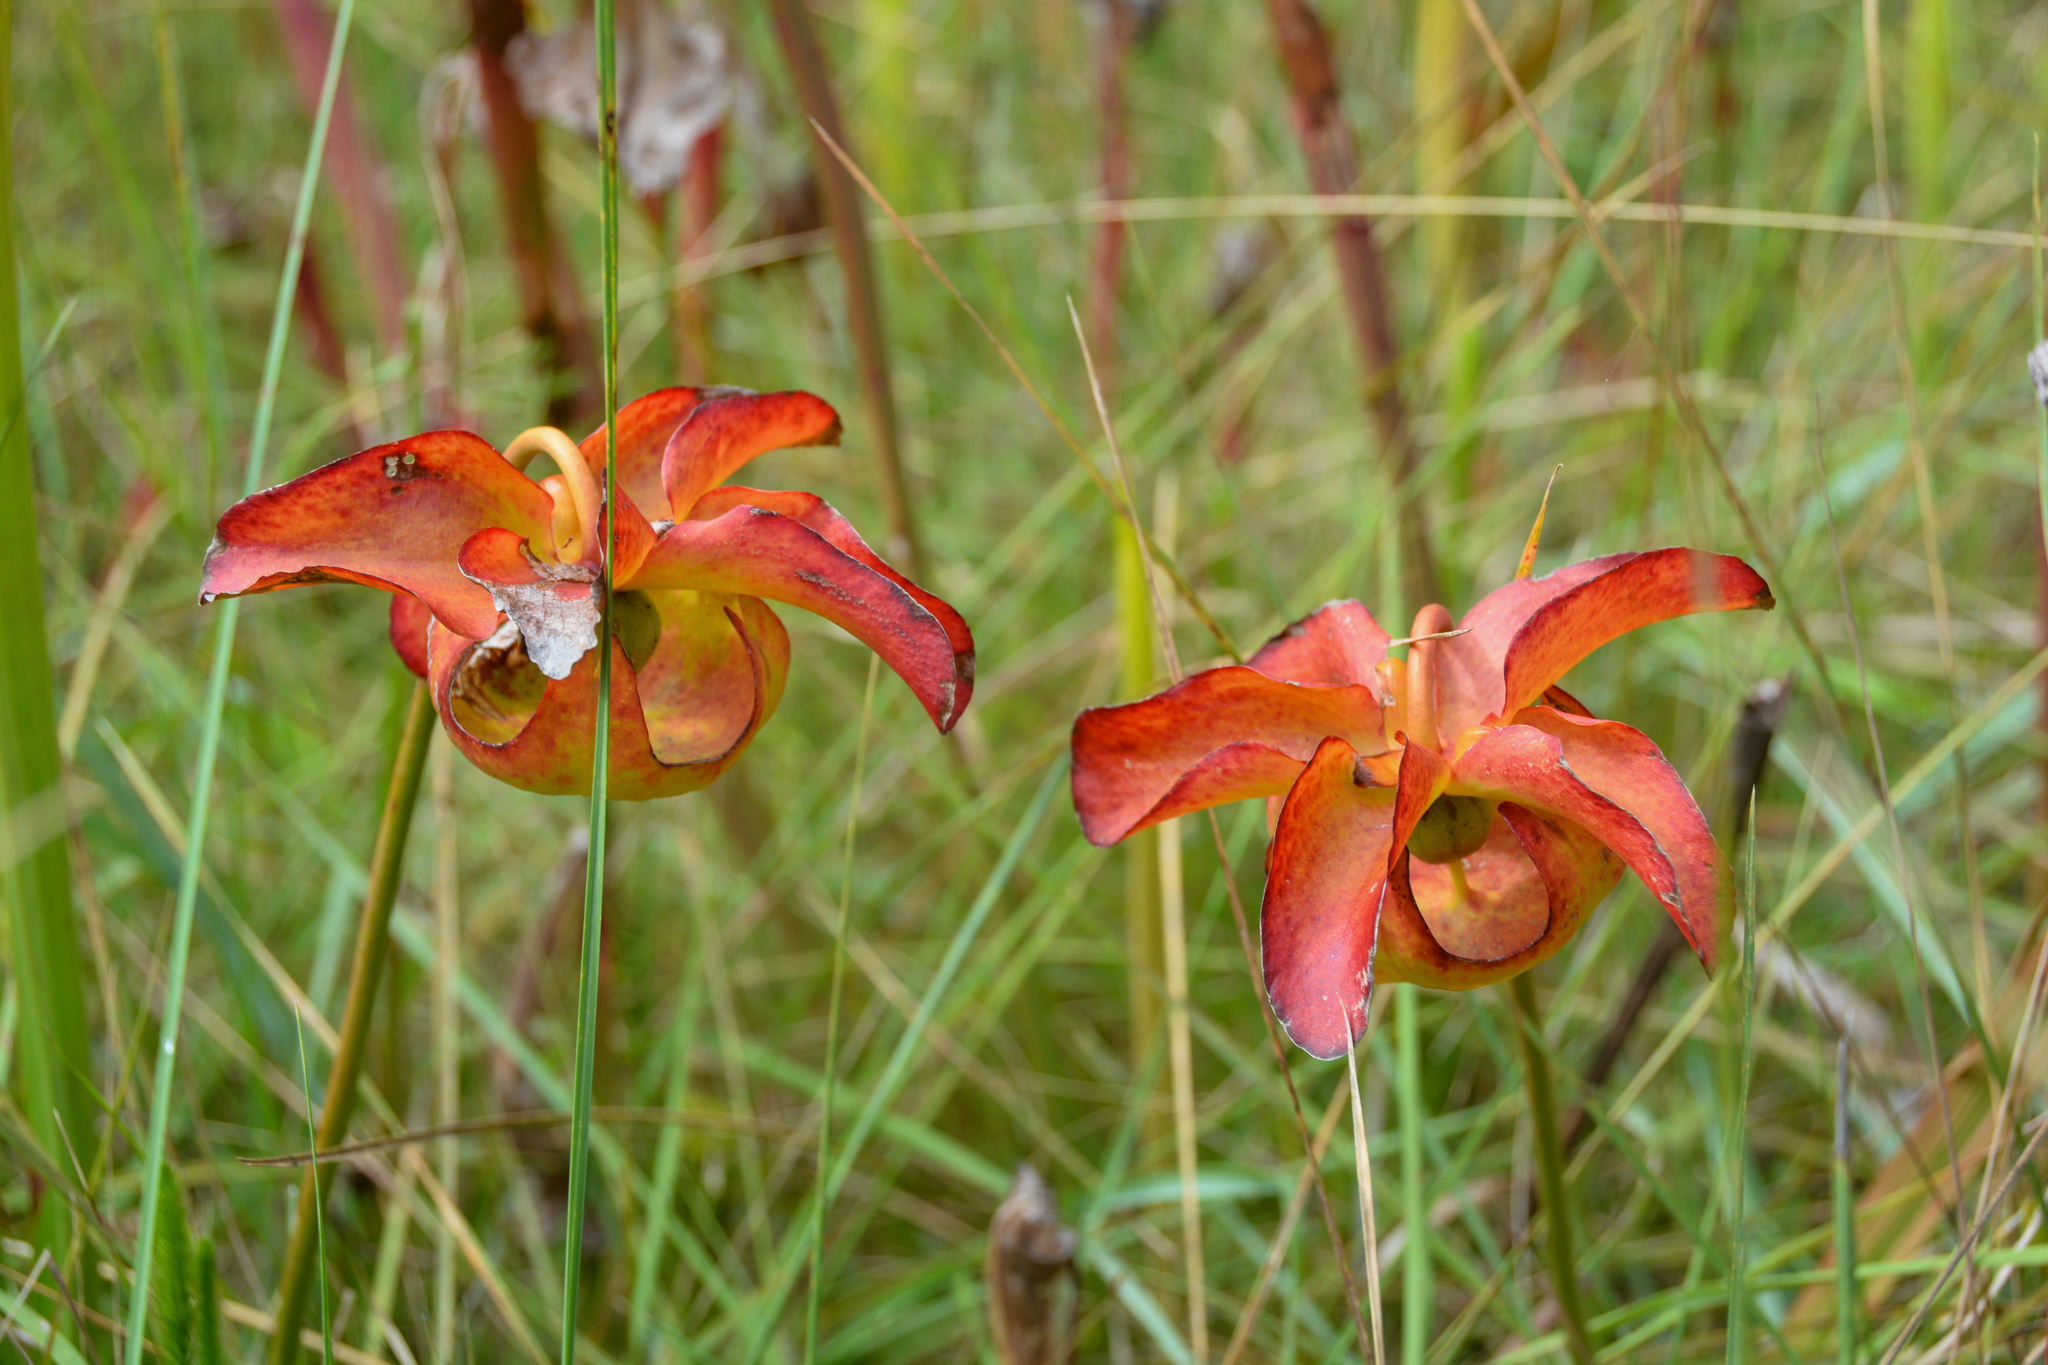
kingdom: Plantae
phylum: Tracheophyta
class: Magnoliopsida
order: Ericales
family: Sarraceniaceae
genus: Sarracenia
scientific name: Sarracenia alata
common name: Yellow trumpets
